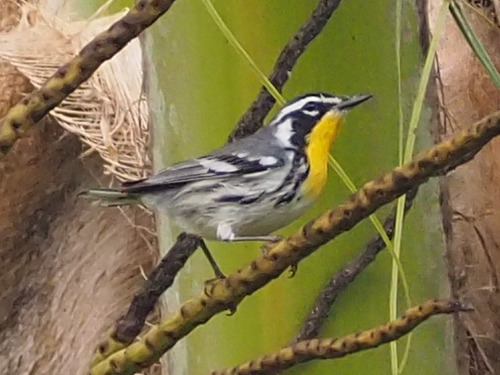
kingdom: Animalia
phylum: Chordata
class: Aves
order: Passeriformes
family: Parulidae
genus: Setophaga
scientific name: Setophaga dominica
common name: Yellow-throated warbler
